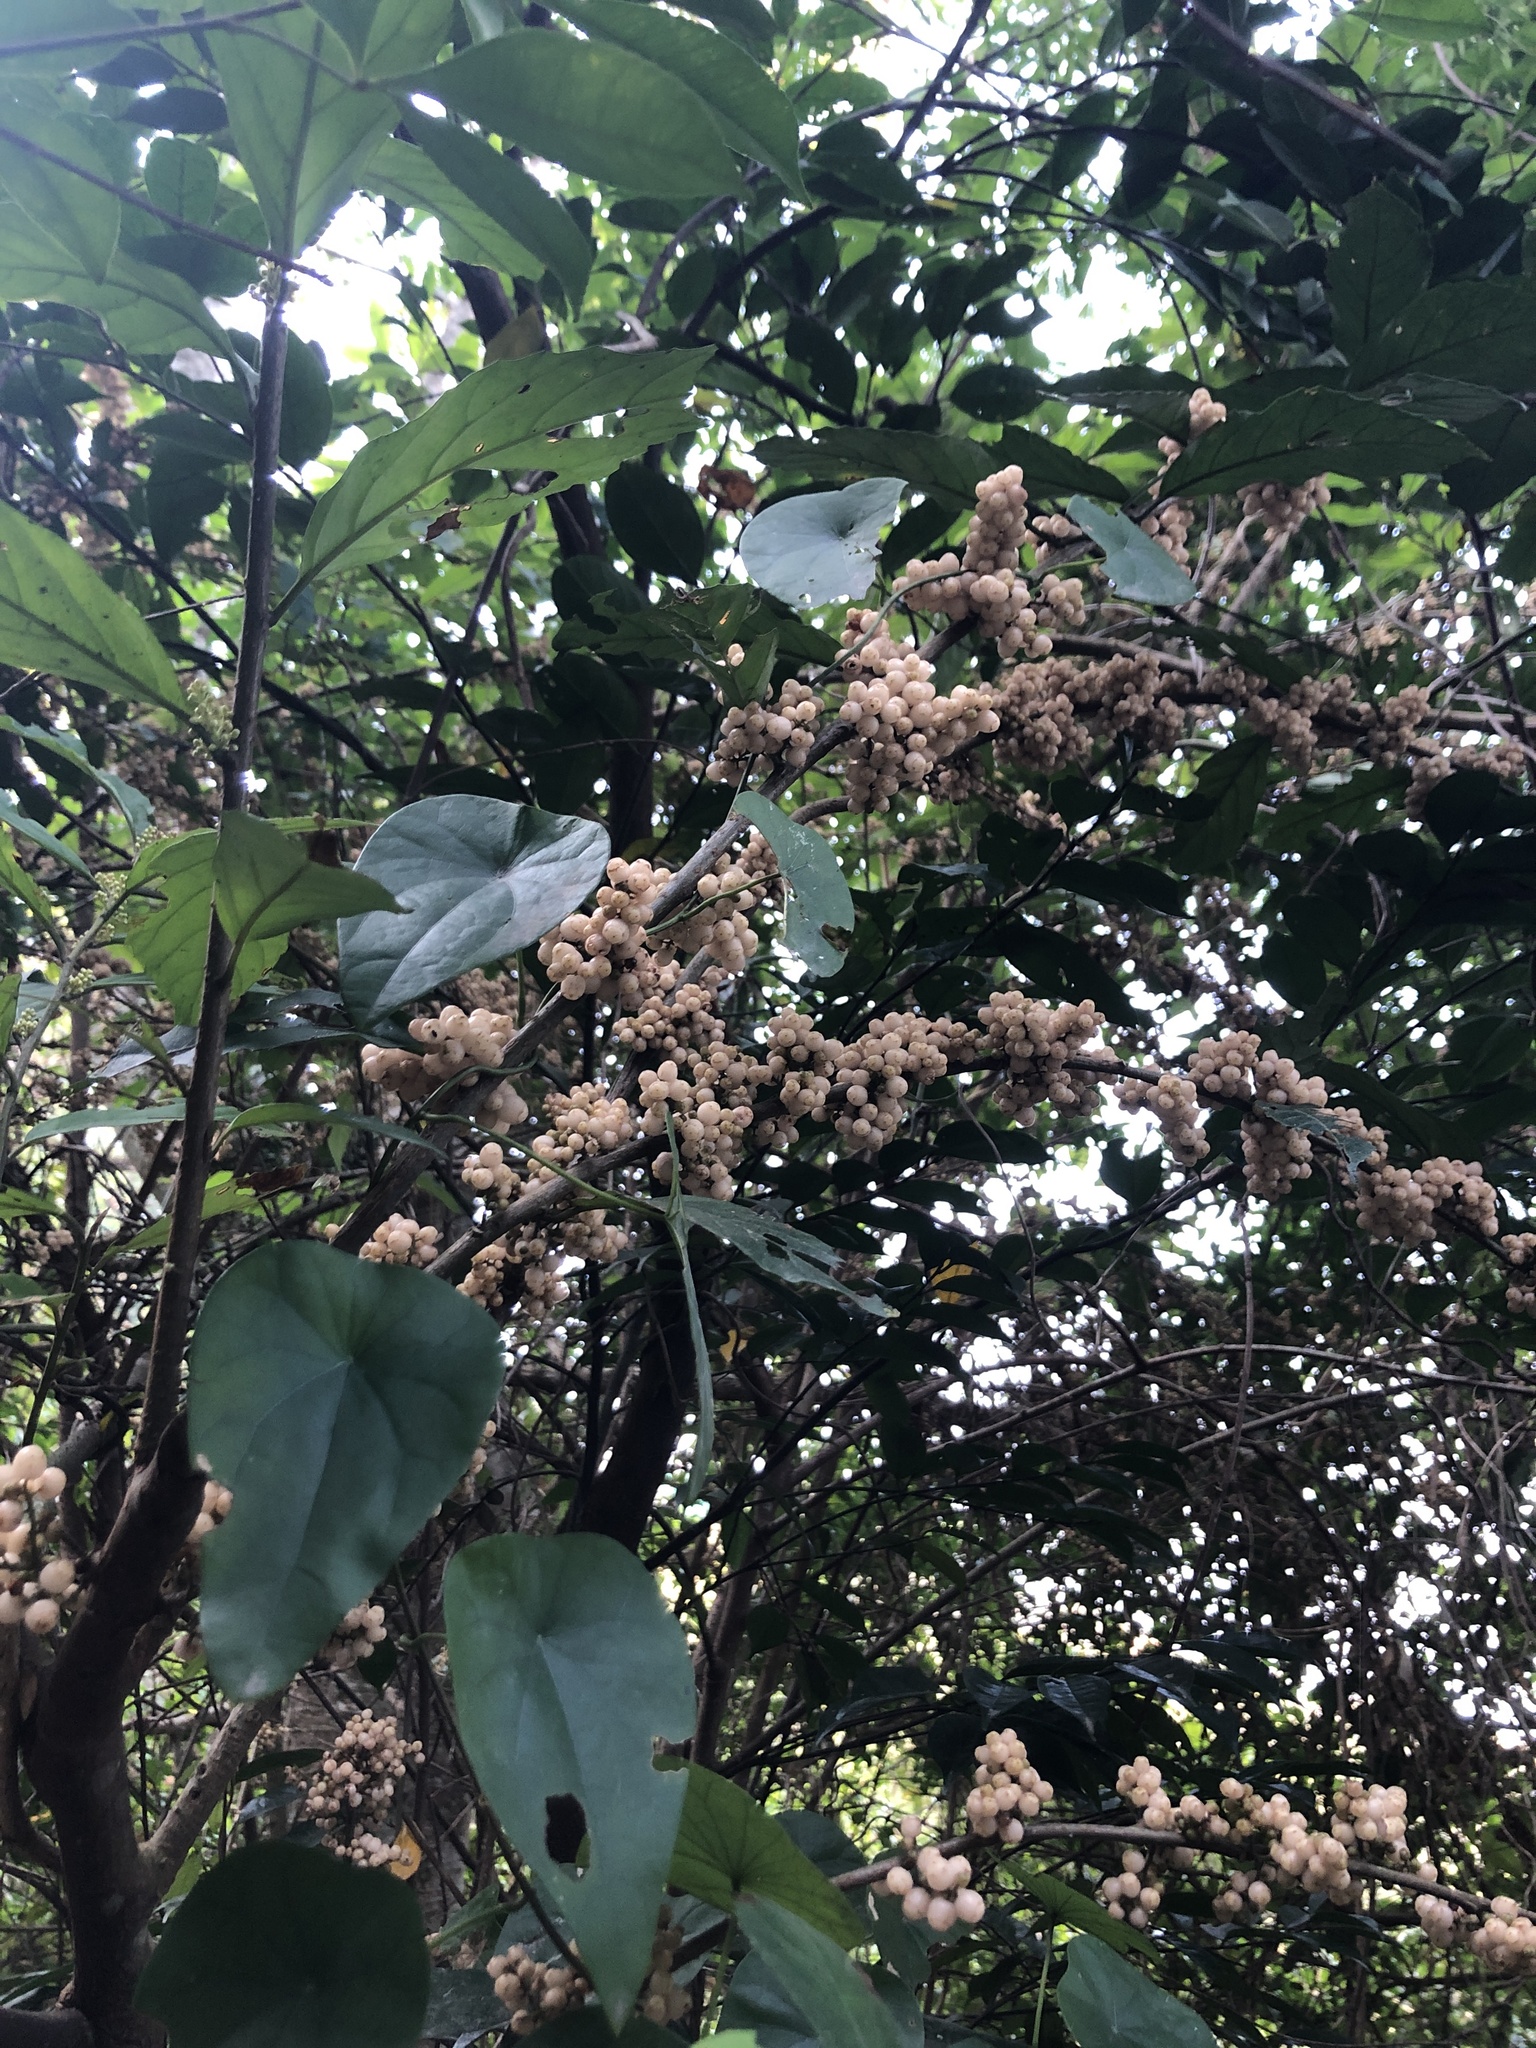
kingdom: Plantae
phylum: Tracheophyta
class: Magnoliopsida
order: Ericales
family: Primulaceae
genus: Maesa
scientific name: Maesa japonica
